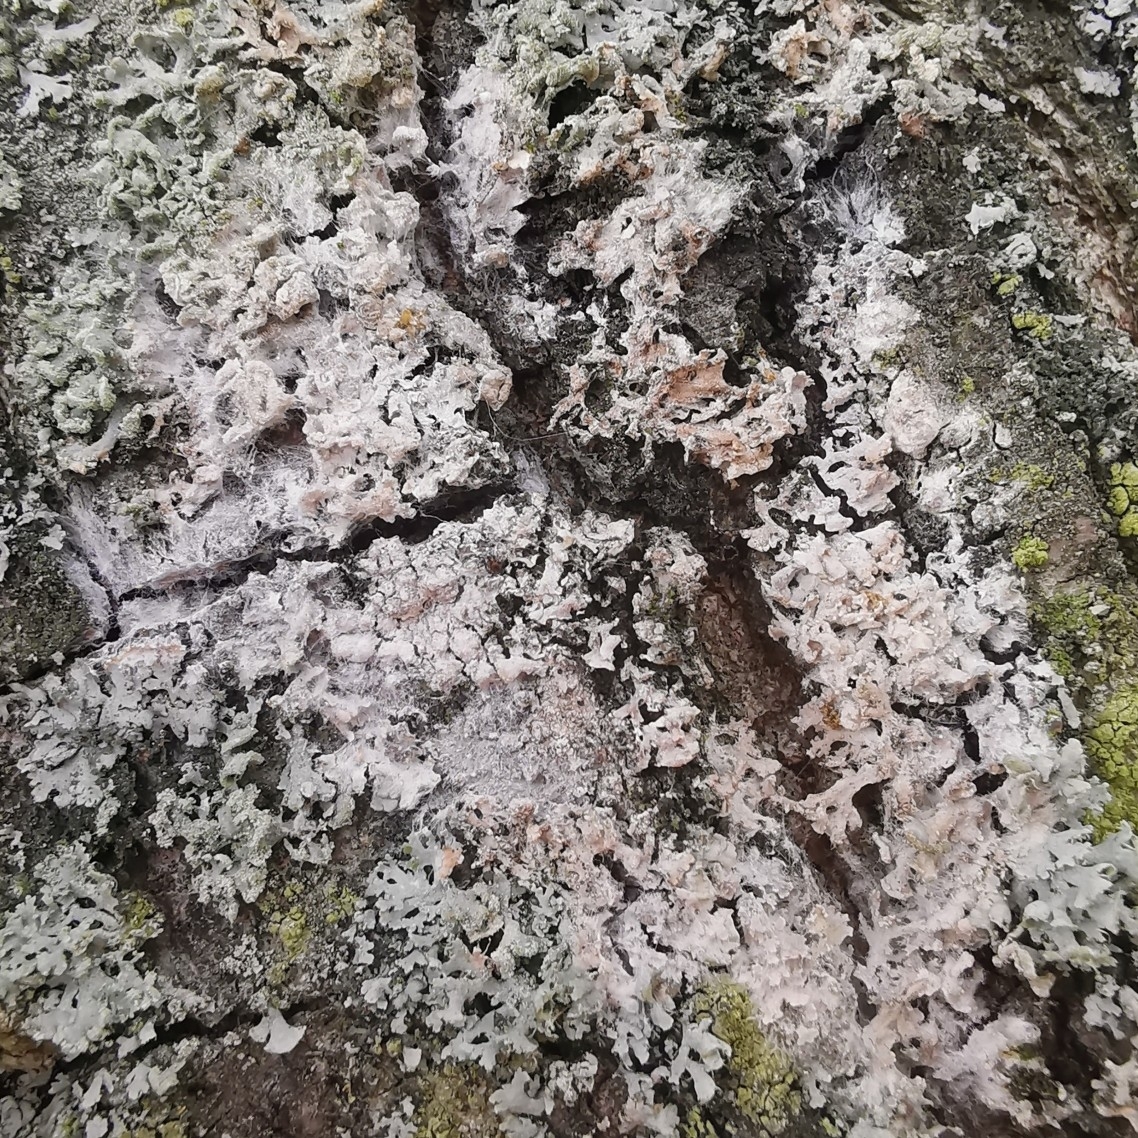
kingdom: Fungi
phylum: Basidiomycota
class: Agaricomycetes
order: Atheliales
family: Atheliaceae
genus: Athelia
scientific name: Athelia arachnoidea
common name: Candelabra duster
